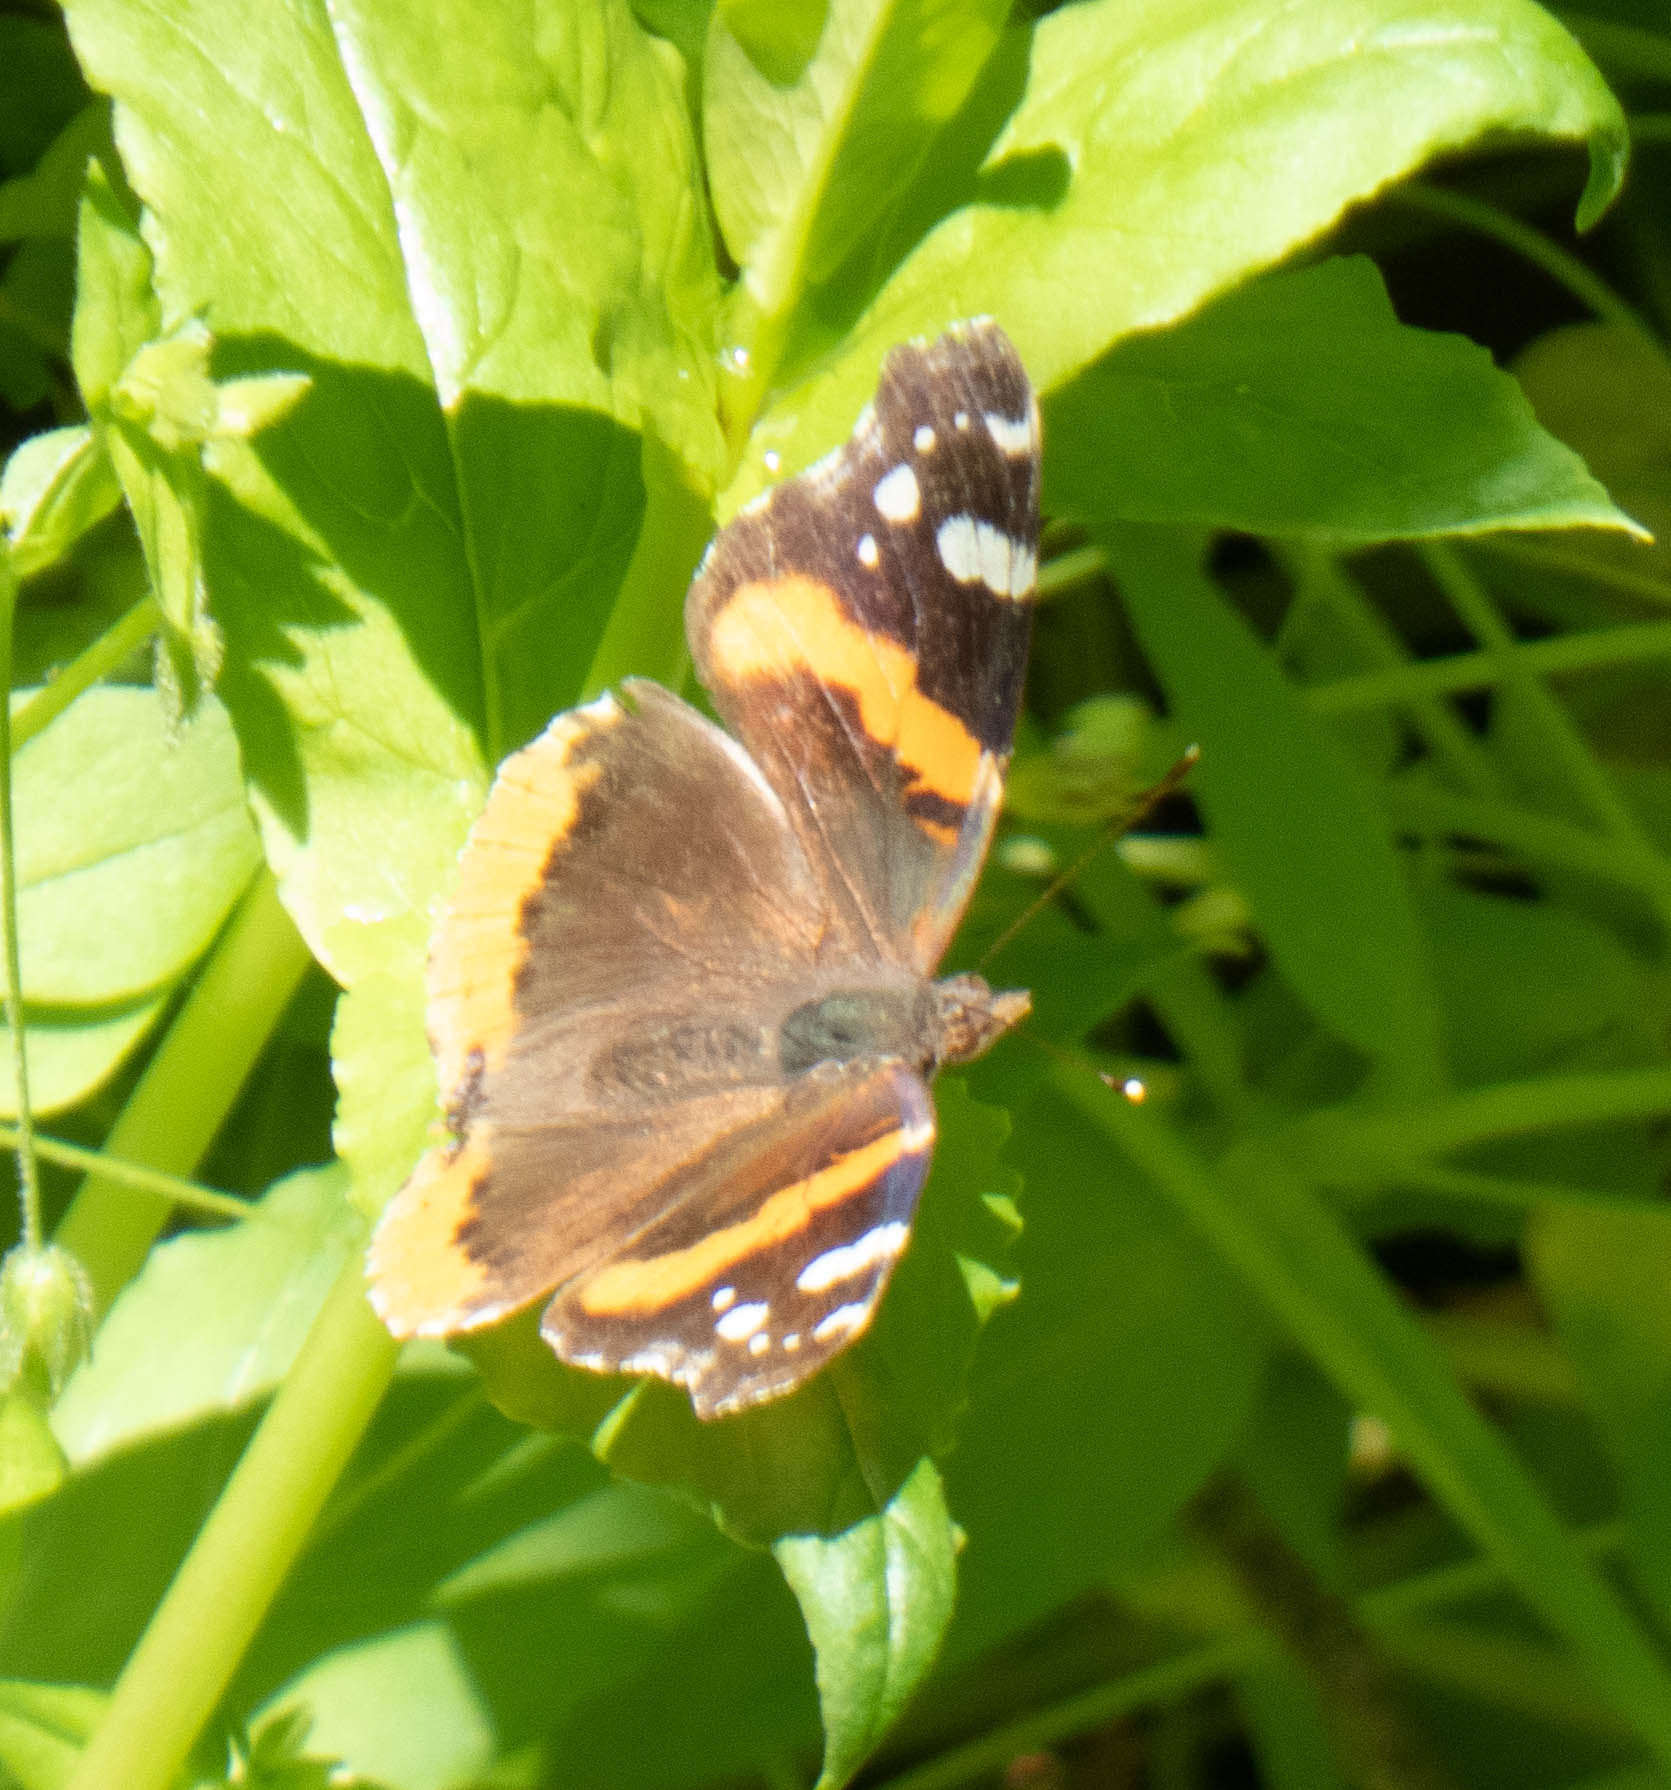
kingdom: Animalia
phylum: Arthropoda
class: Insecta
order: Lepidoptera
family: Nymphalidae
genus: Vanessa
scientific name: Vanessa atalanta
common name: Red admiral
